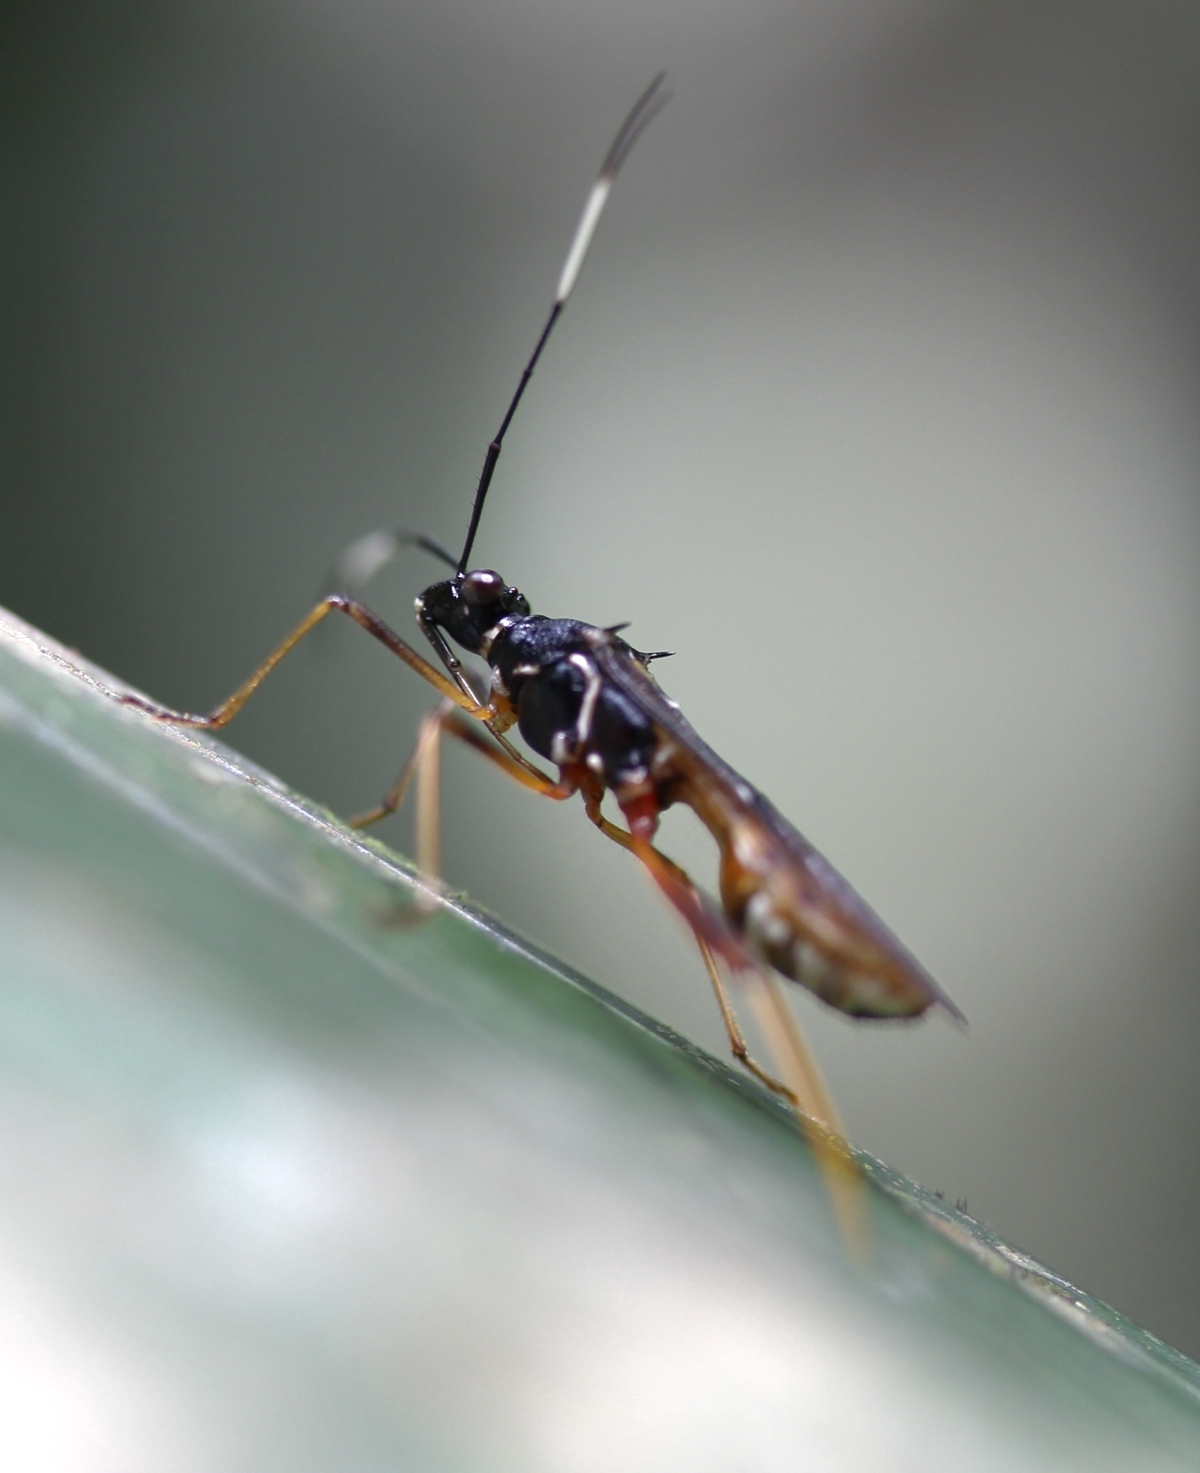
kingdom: Animalia
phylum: Arthropoda
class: Insecta
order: Hemiptera
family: Alydidae
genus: Hyalymenus
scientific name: Hyalymenus walkeri
